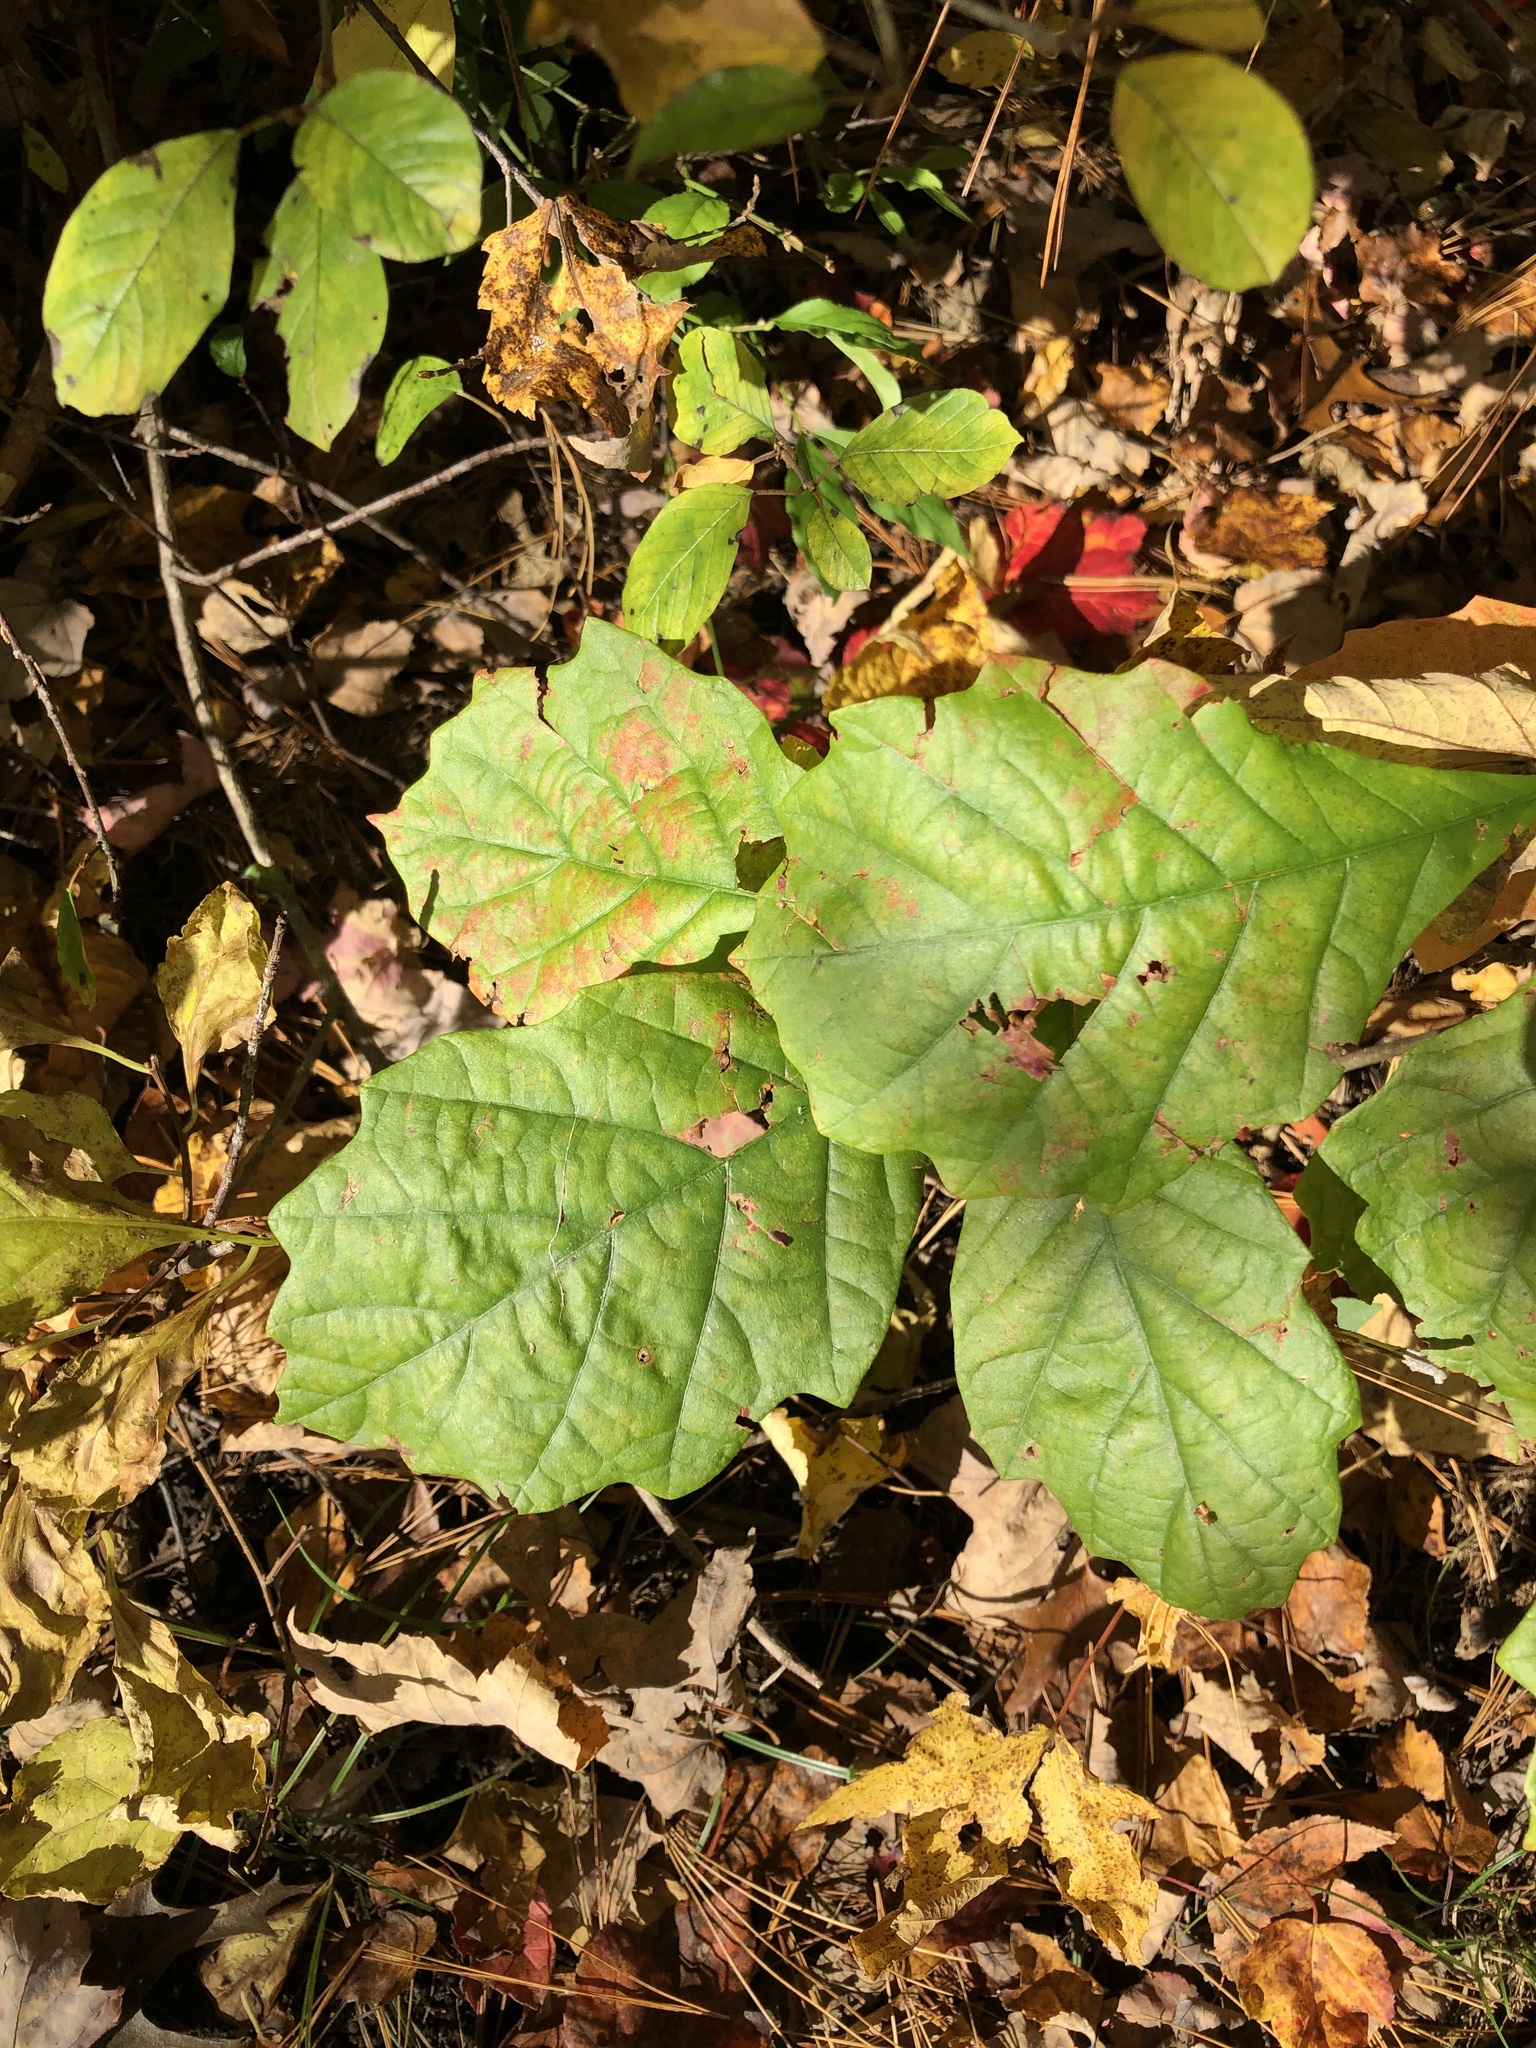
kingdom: Plantae
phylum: Tracheophyta
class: Magnoliopsida
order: Fagales
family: Fagaceae
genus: Quercus
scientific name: Quercus bicolor
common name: Swamp white oak
